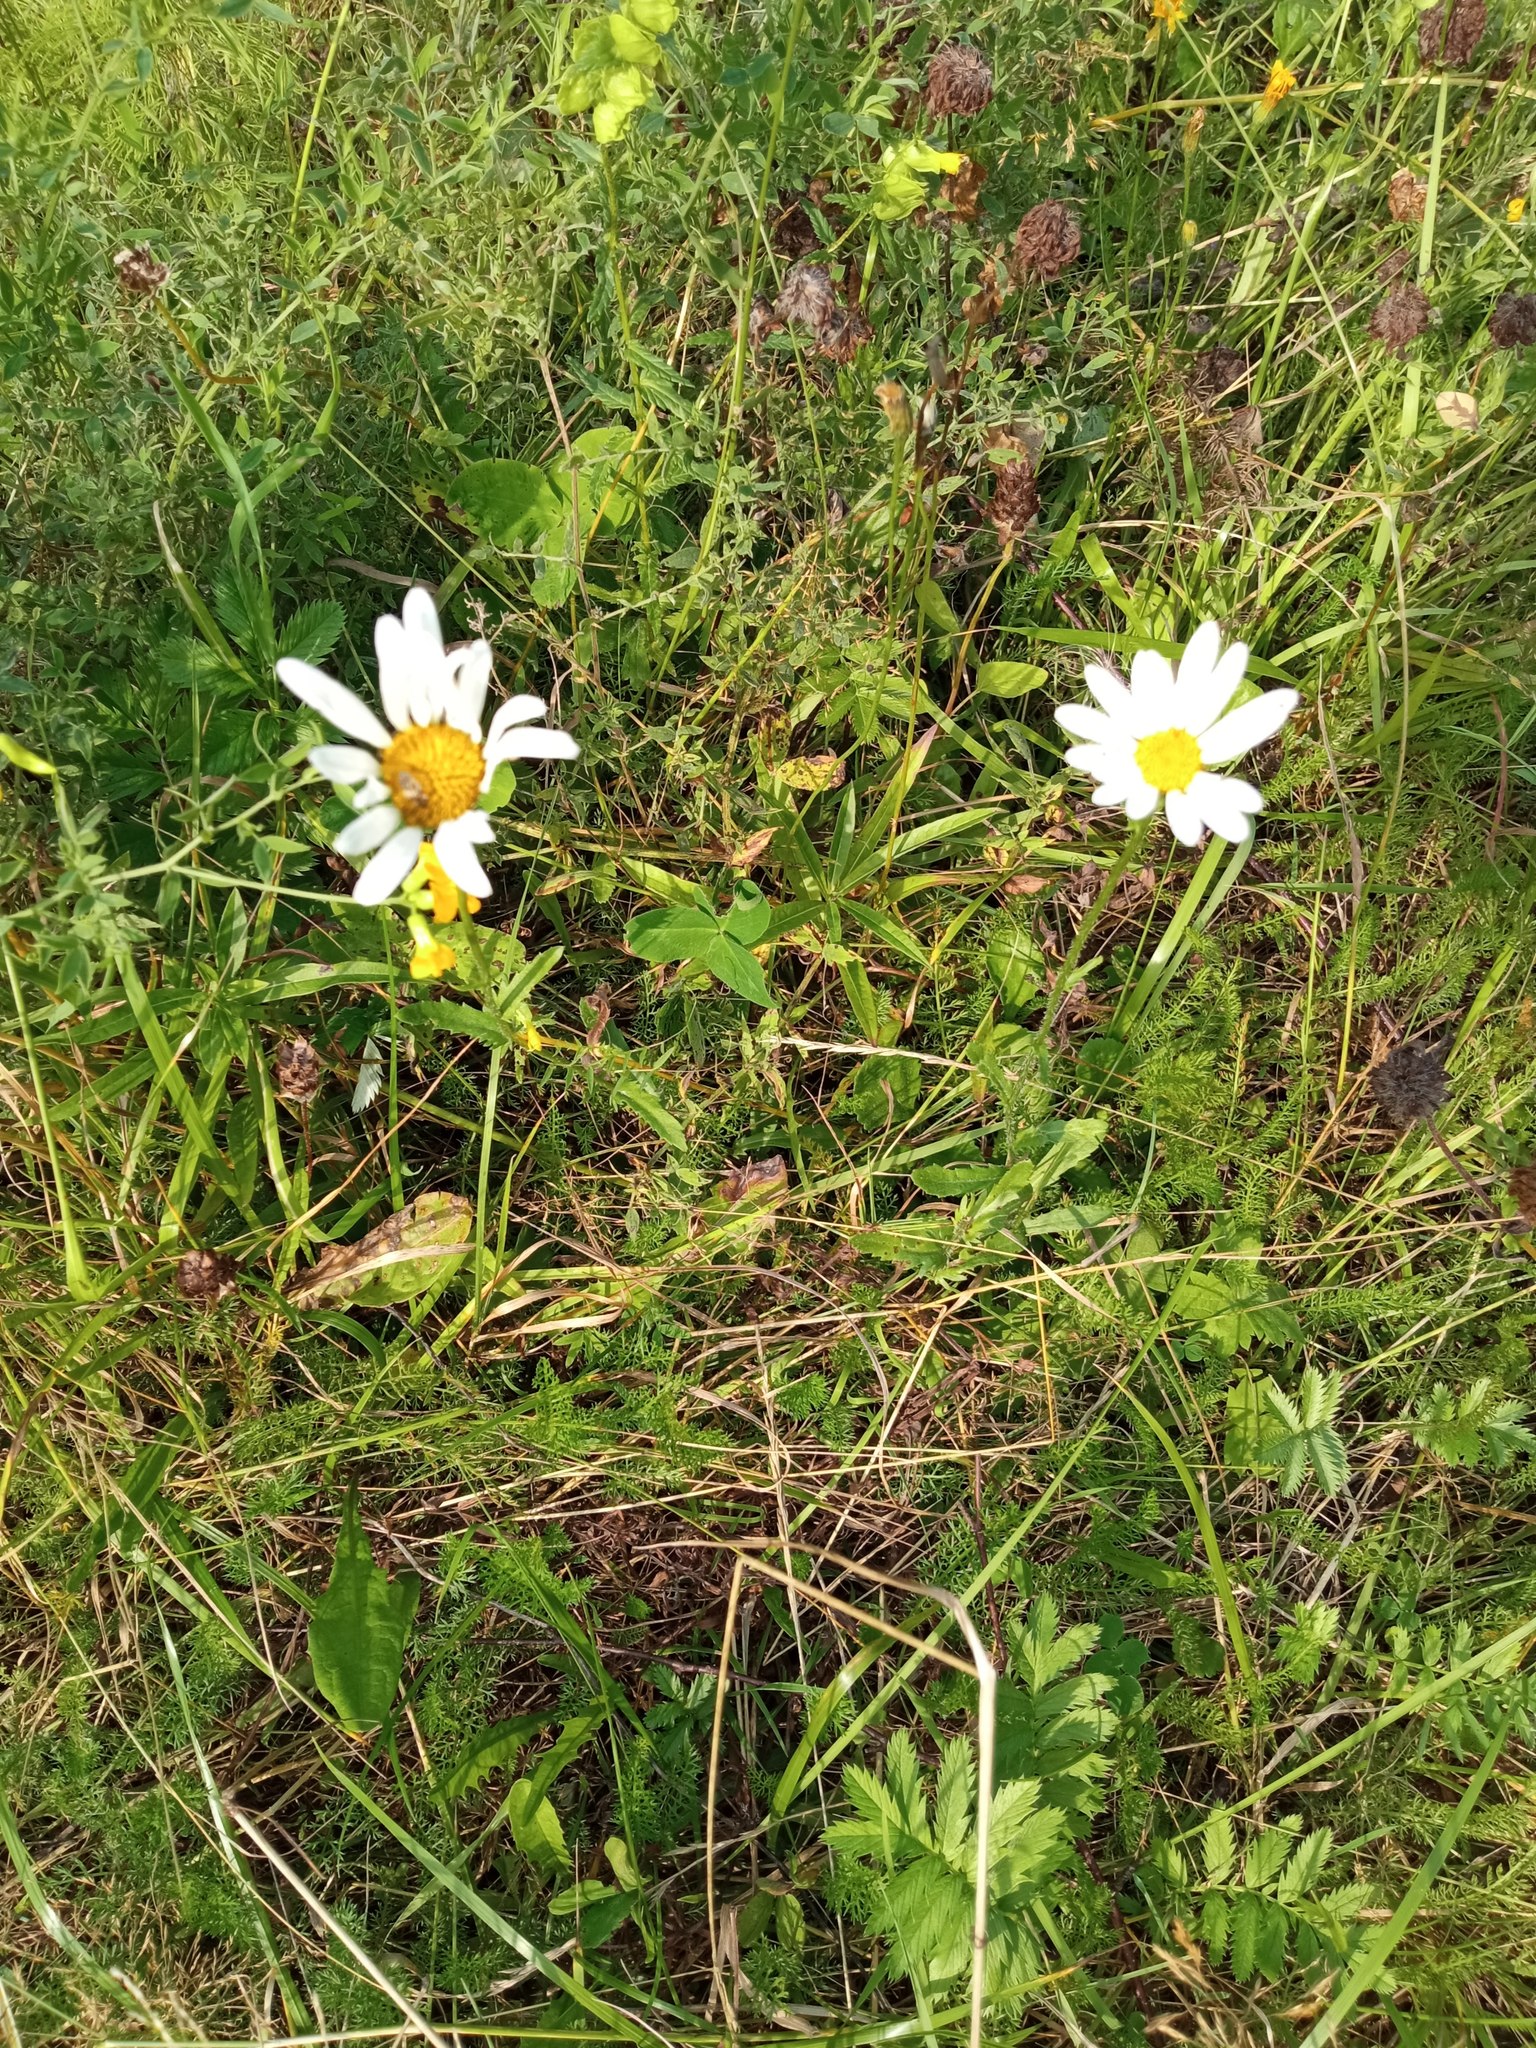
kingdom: Plantae
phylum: Tracheophyta
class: Magnoliopsida
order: Asterales
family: Asteraceae
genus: Leucanthemum
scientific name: Leucanthemum ircutianum
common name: Daisy
